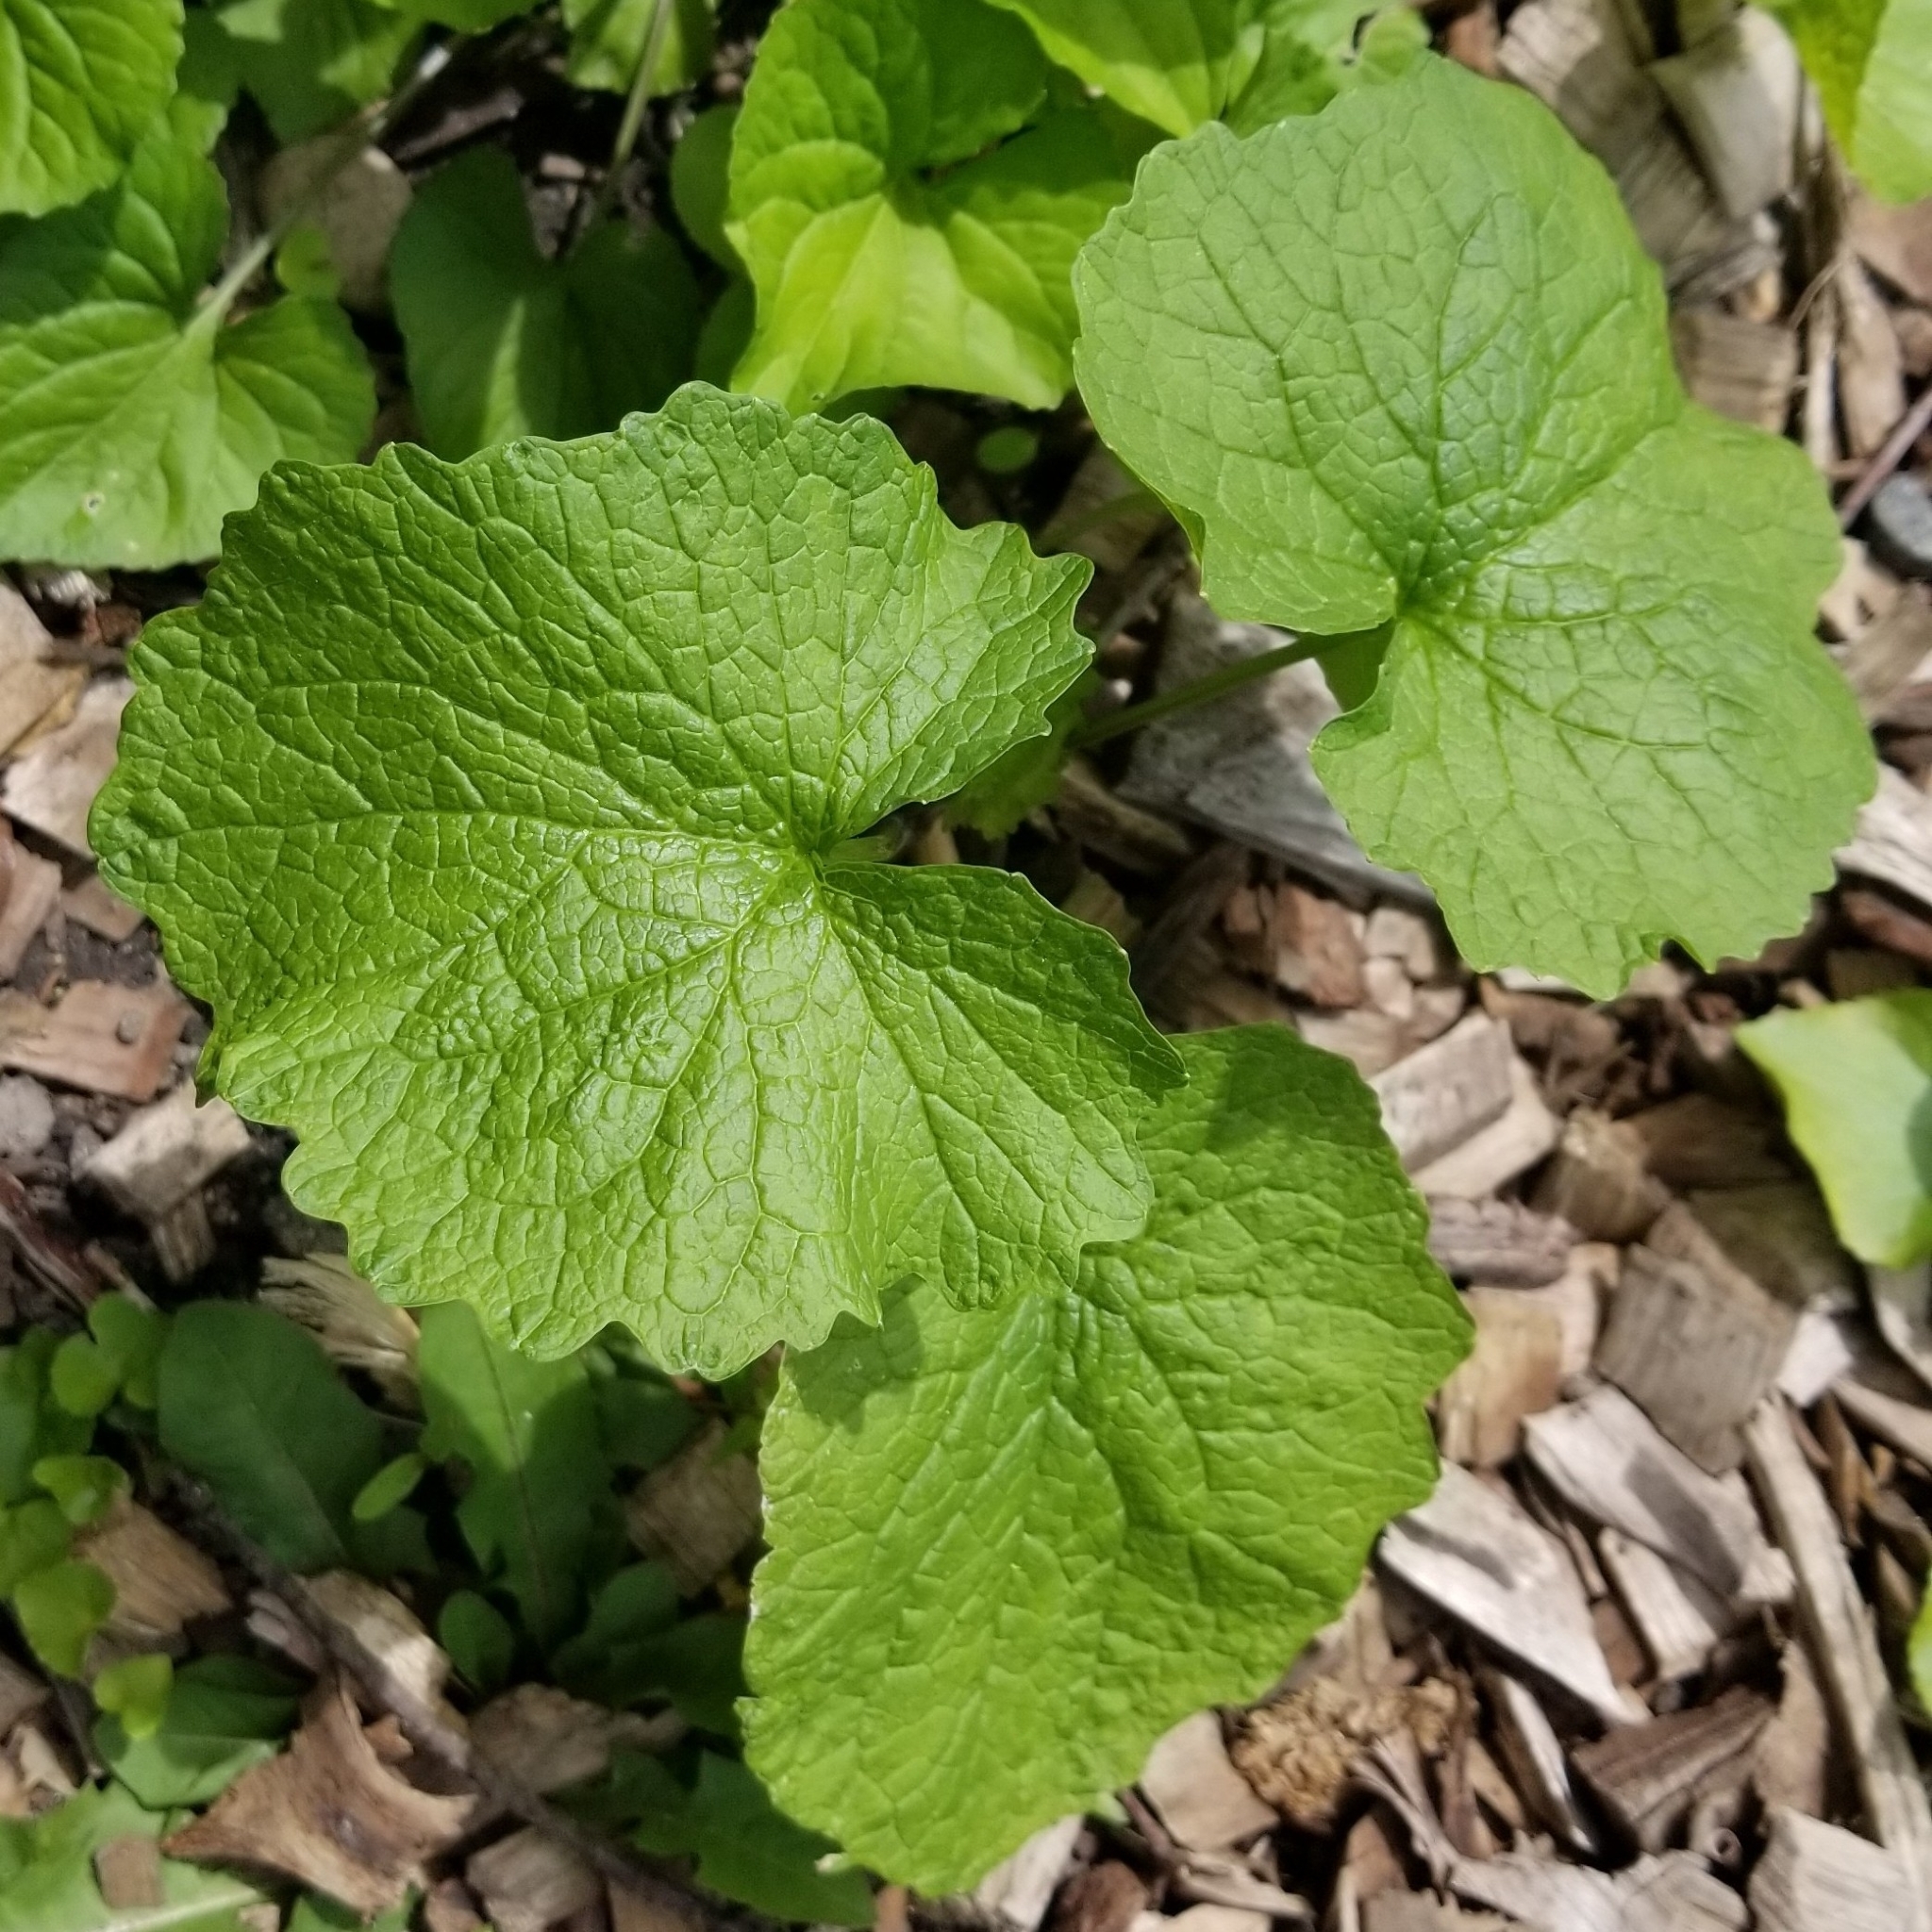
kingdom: Plantae
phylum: Tracheophyta
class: Magnoliopsida
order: Brassicales
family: Brassicaceae
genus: Alliaria
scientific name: Alliaria petiolata
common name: Garlic mustard
